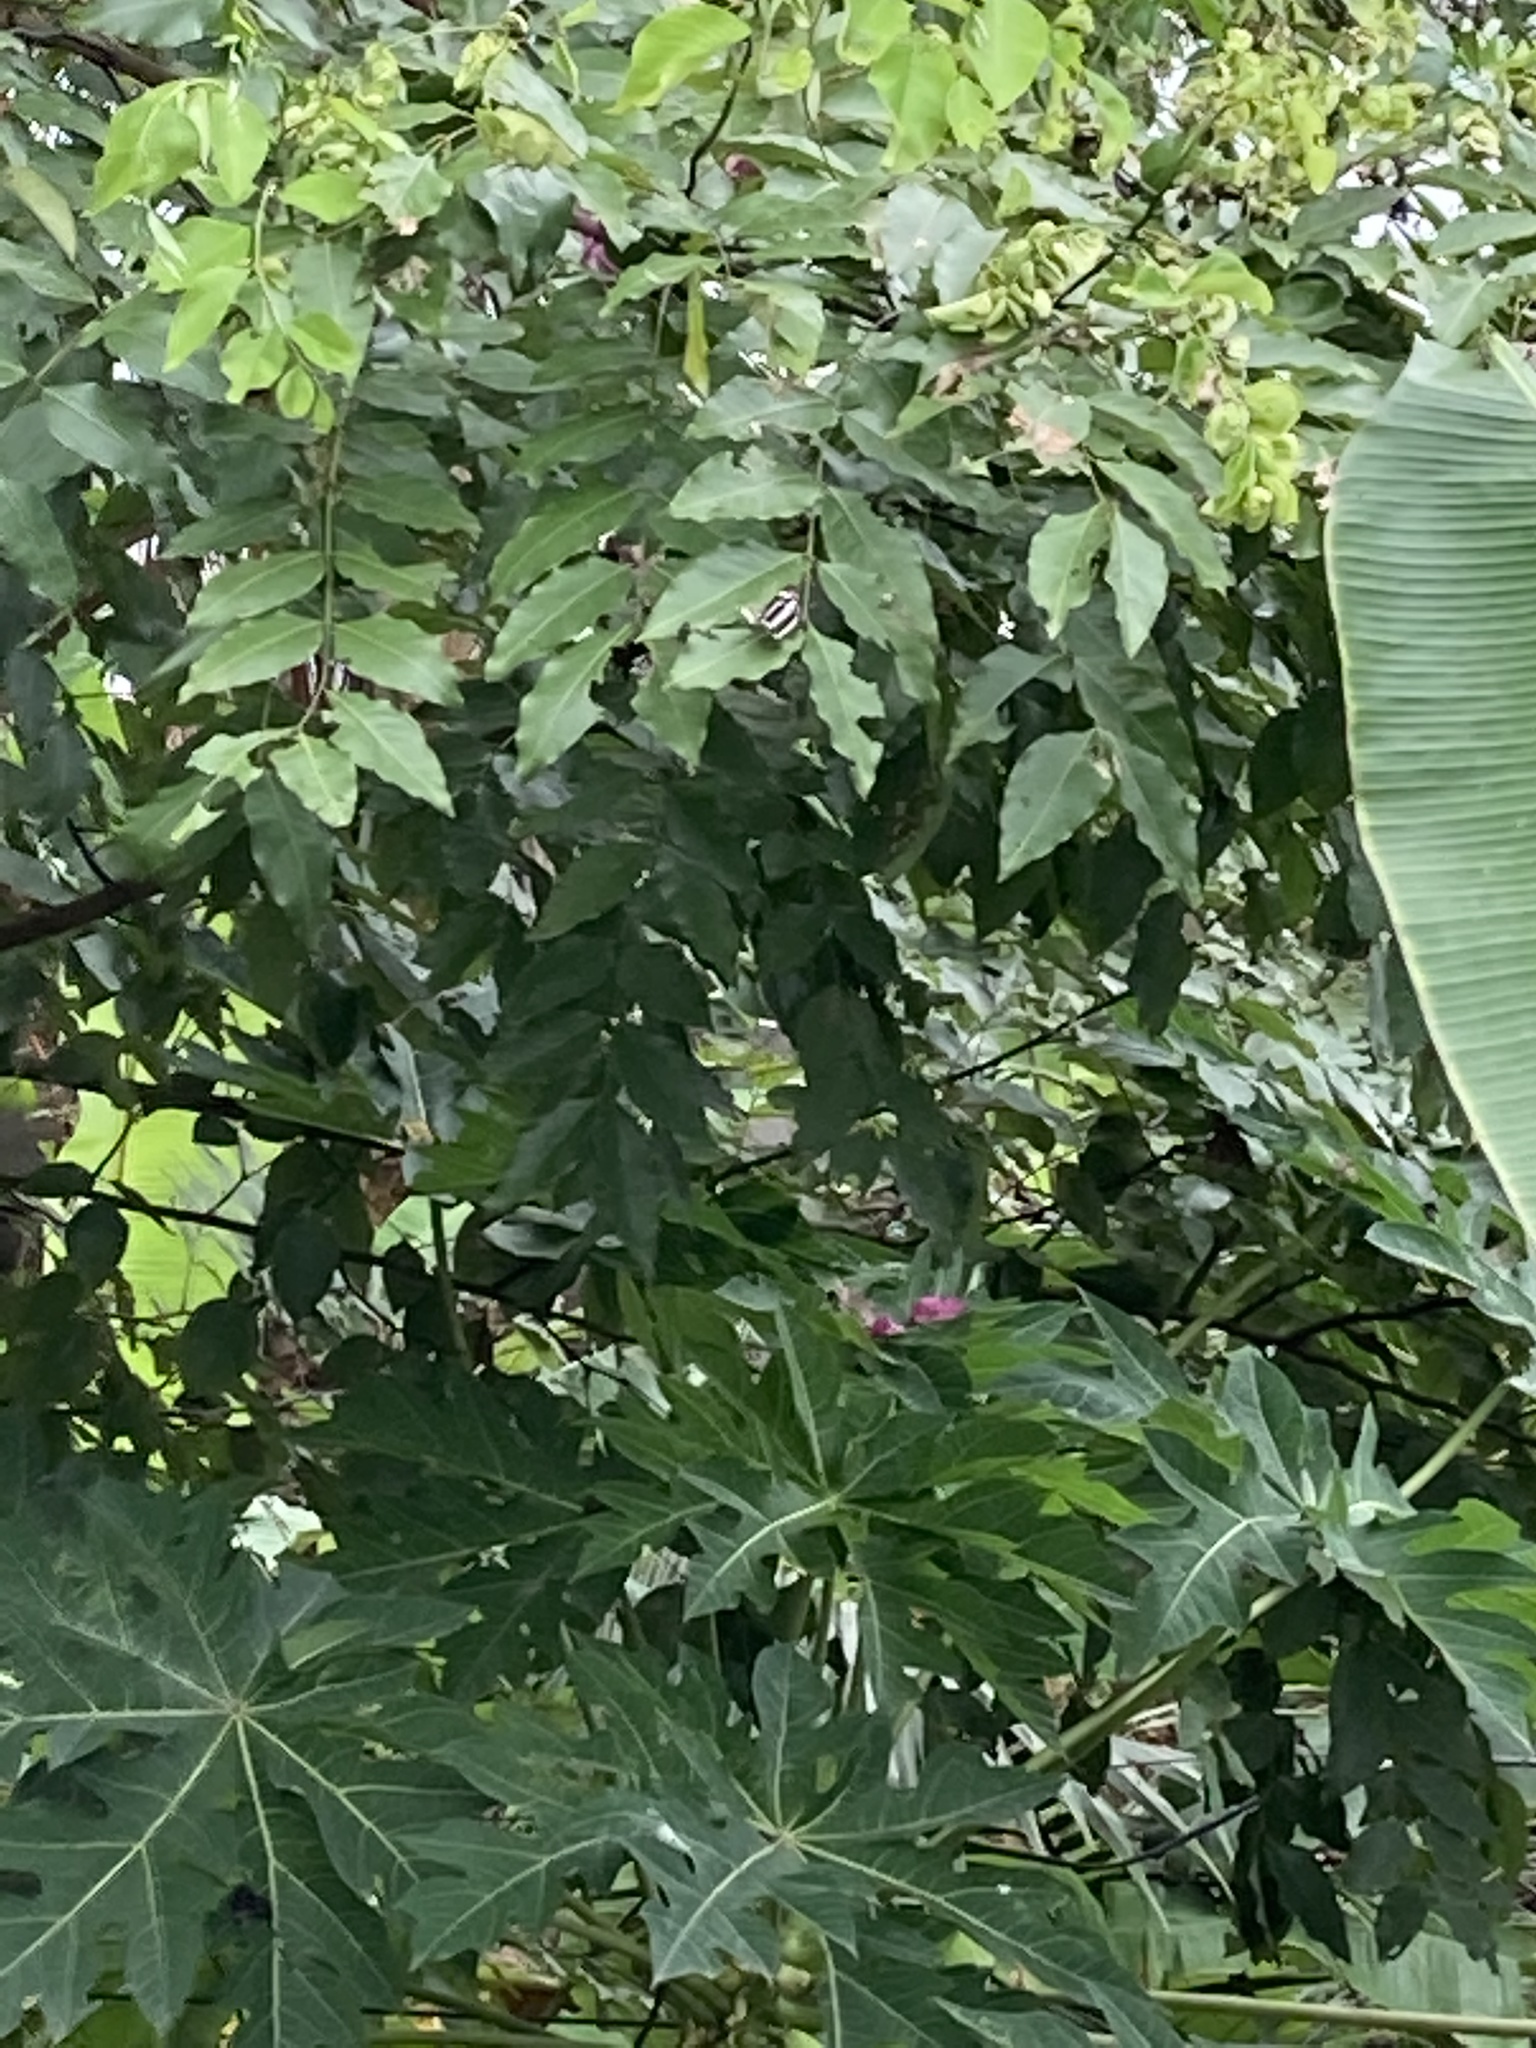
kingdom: Animalia
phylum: Arthropoda
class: Insecta
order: Lepidoptera
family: Nymphalidae
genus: Neptis
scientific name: Neptis hylas
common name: Common sailer
